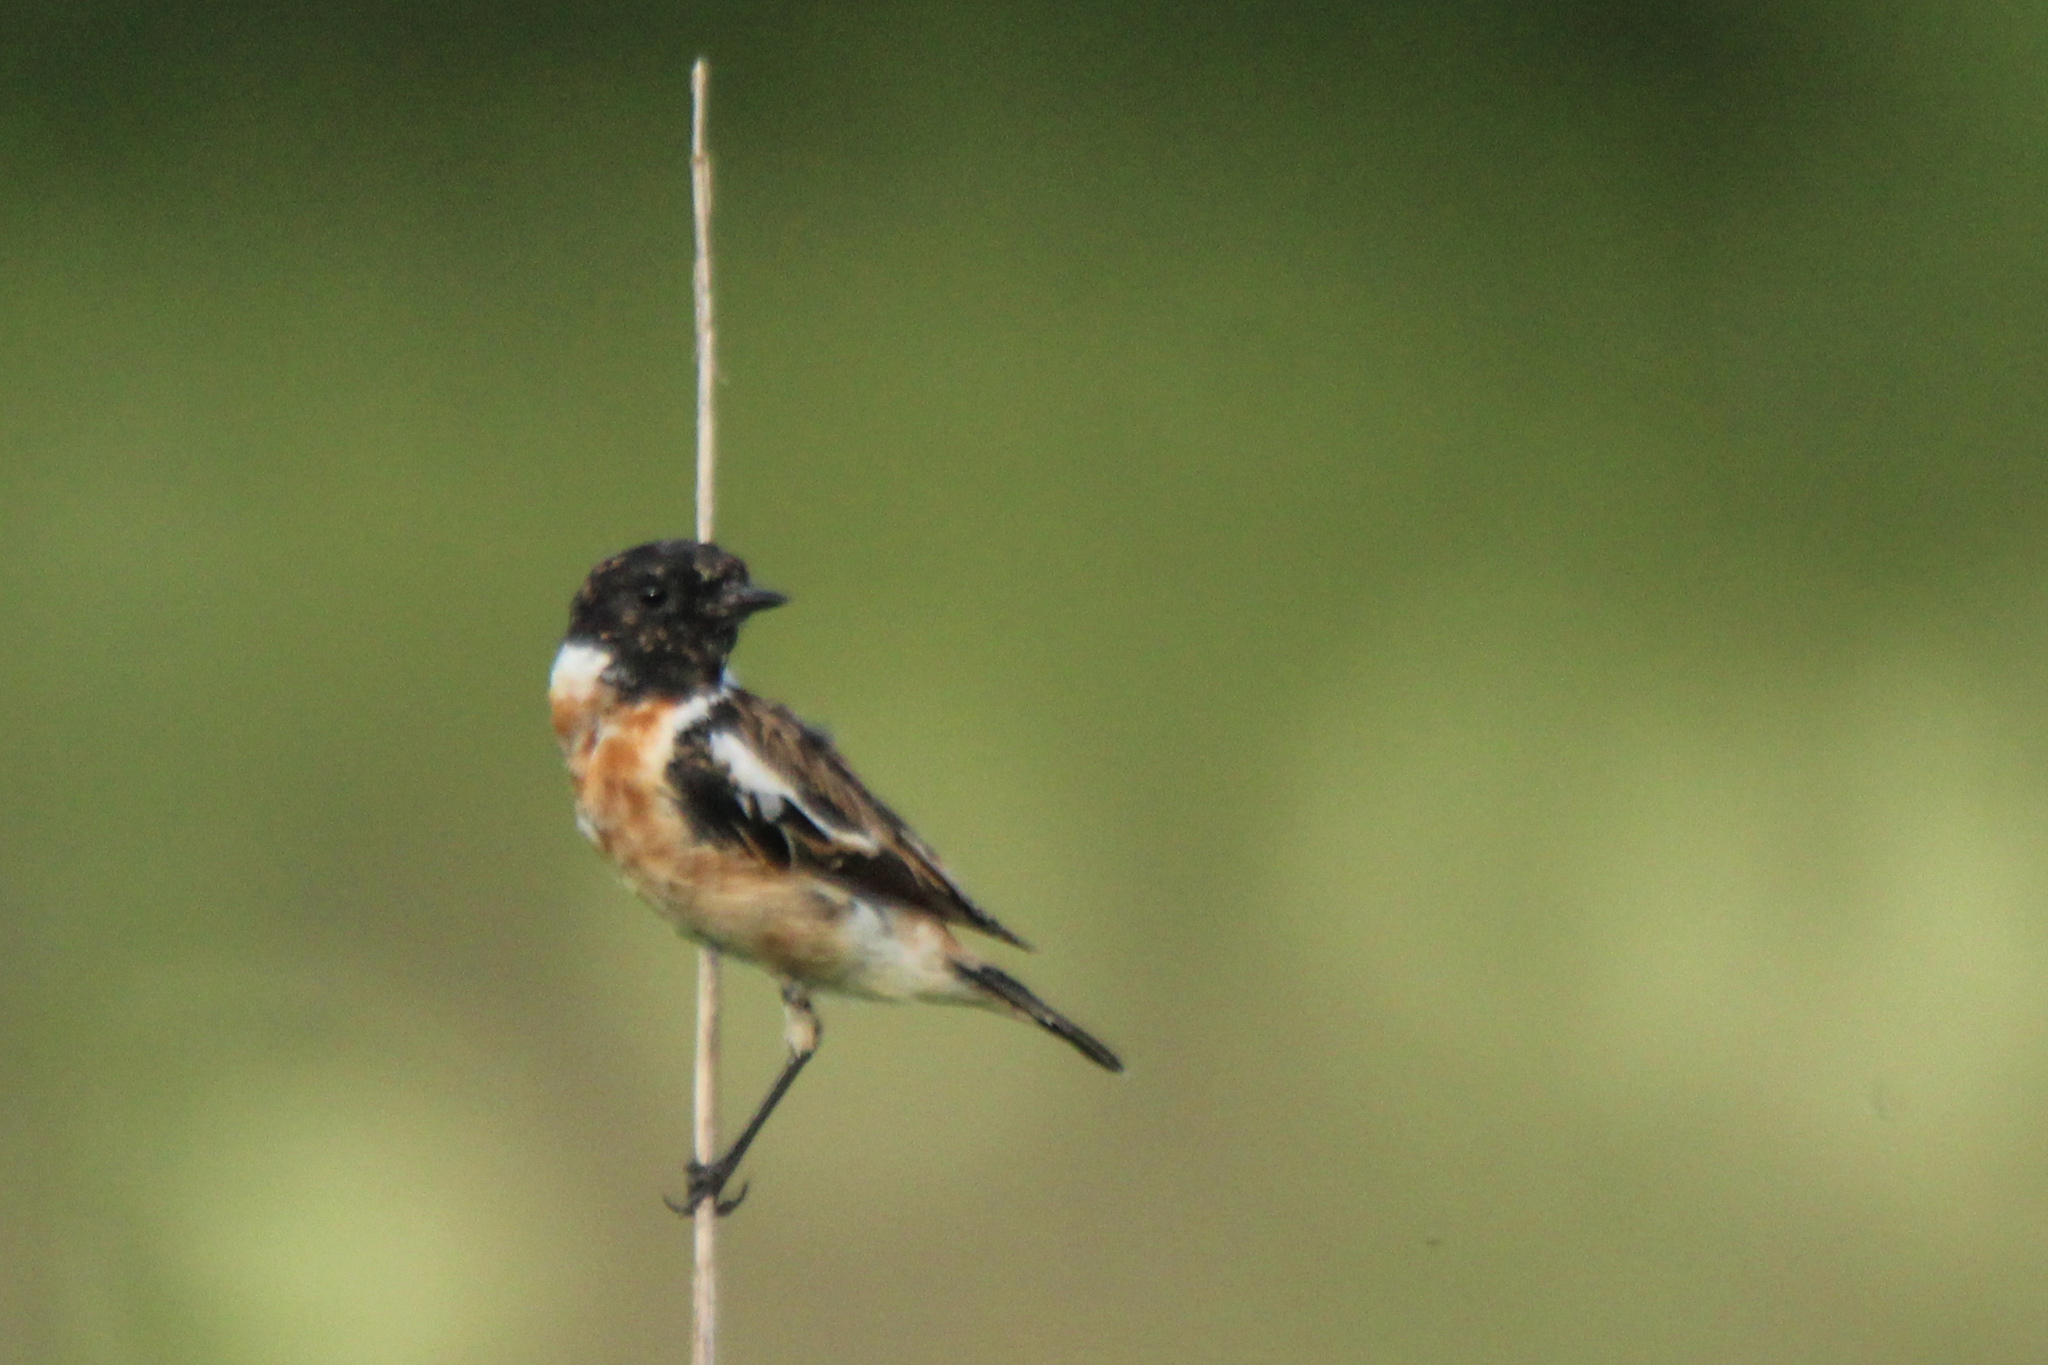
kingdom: Animalia
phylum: Chordata
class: Aves
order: Passeriformes
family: Muscicapidae
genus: Saxicola
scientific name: Saxicola maurus
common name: Siberian stonechat
